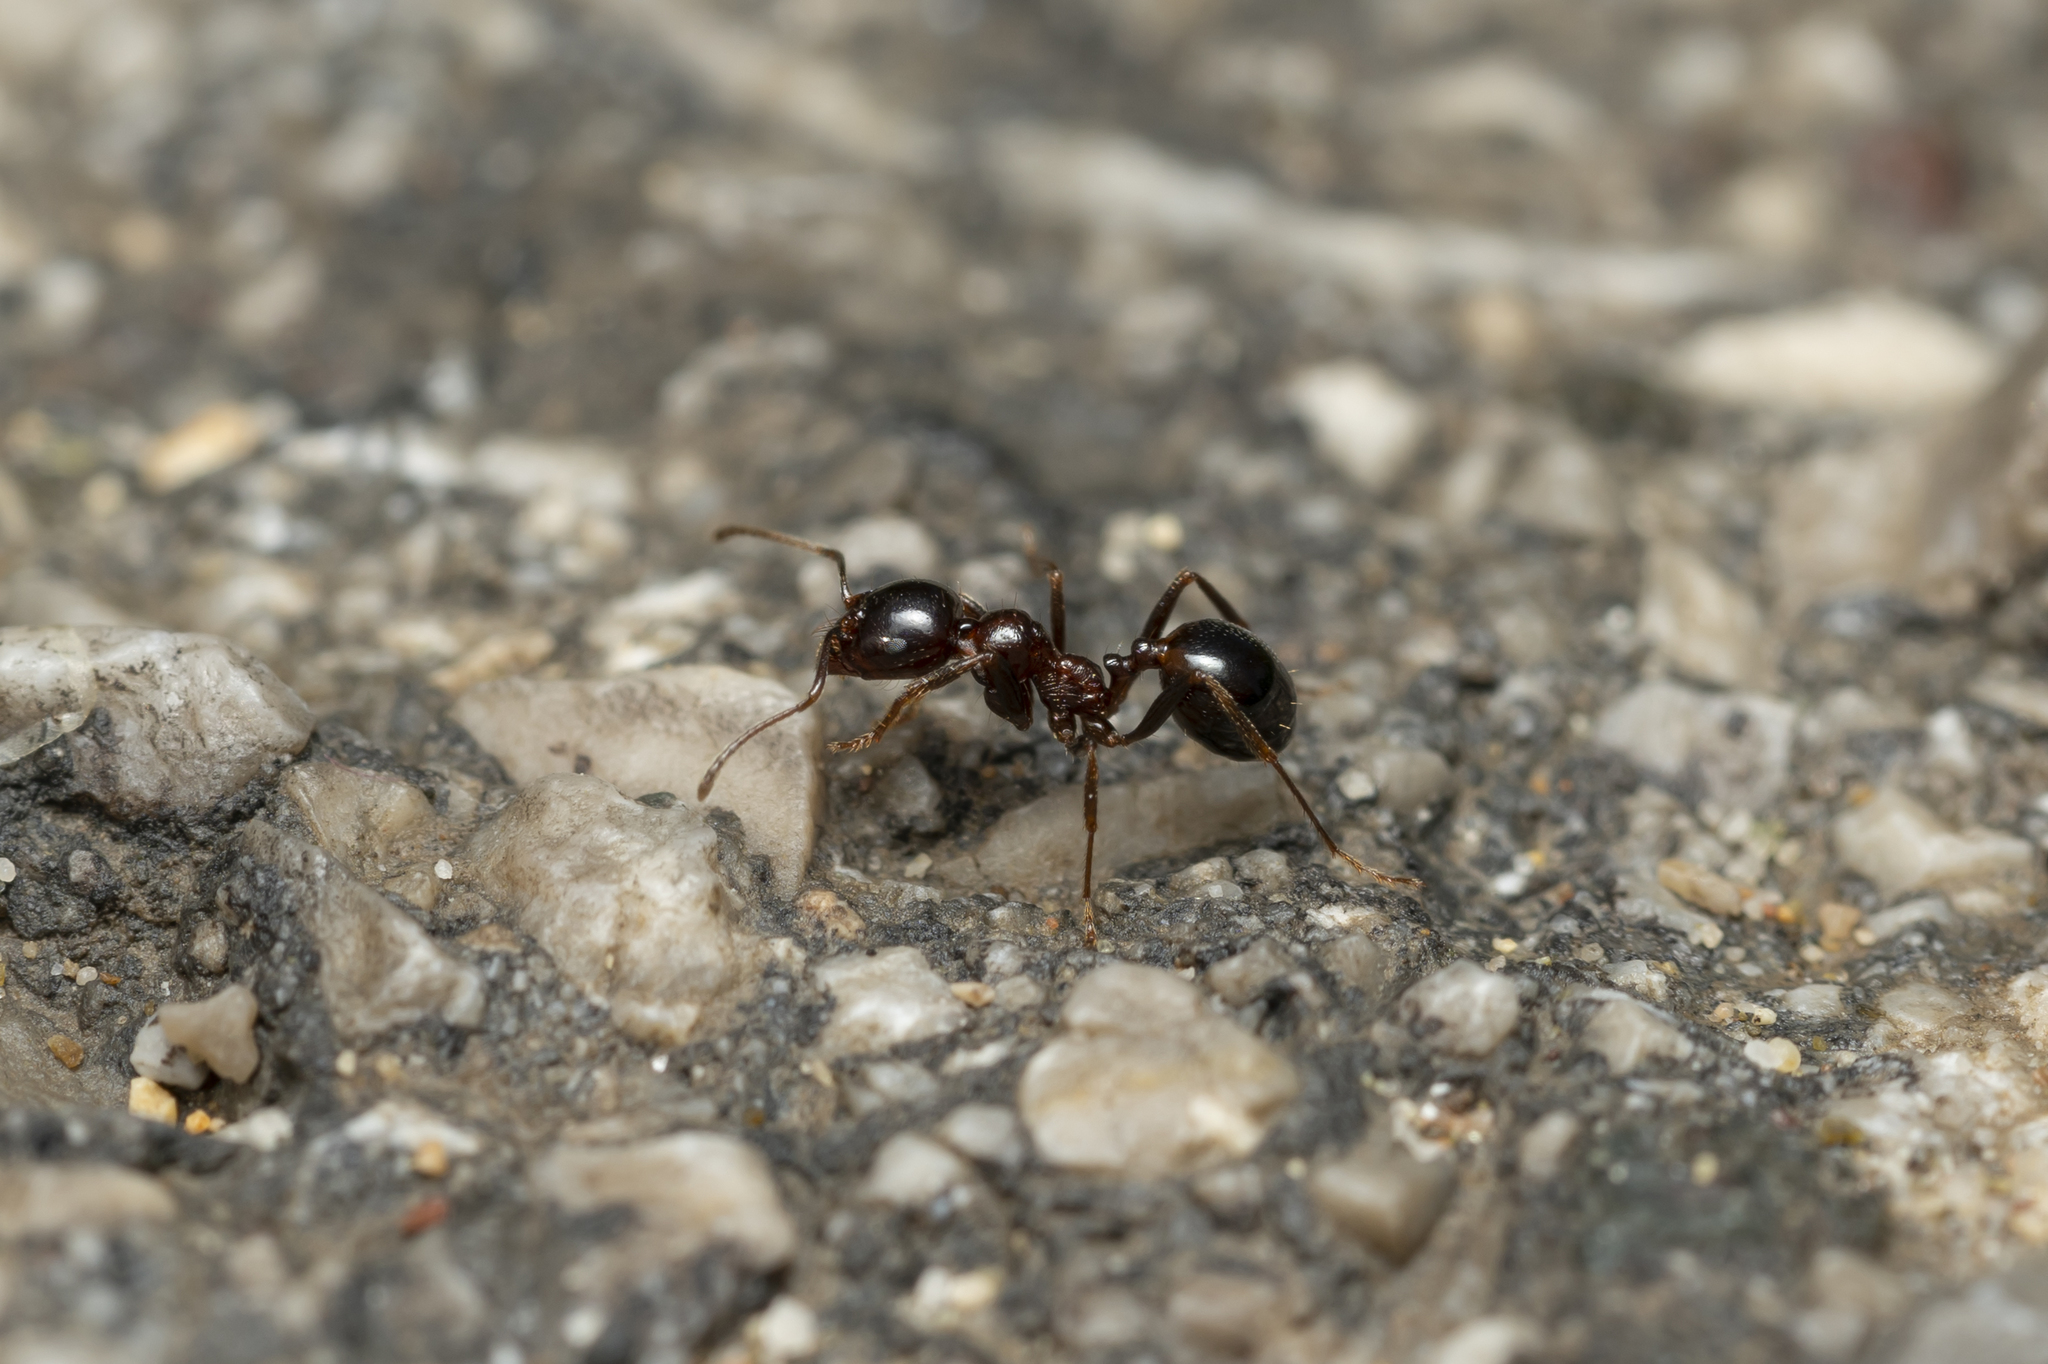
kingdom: Animalia
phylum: Arthropoda
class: Insecta
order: Hymenoptera
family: Formicidae
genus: Messor
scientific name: Messor wasmanni
